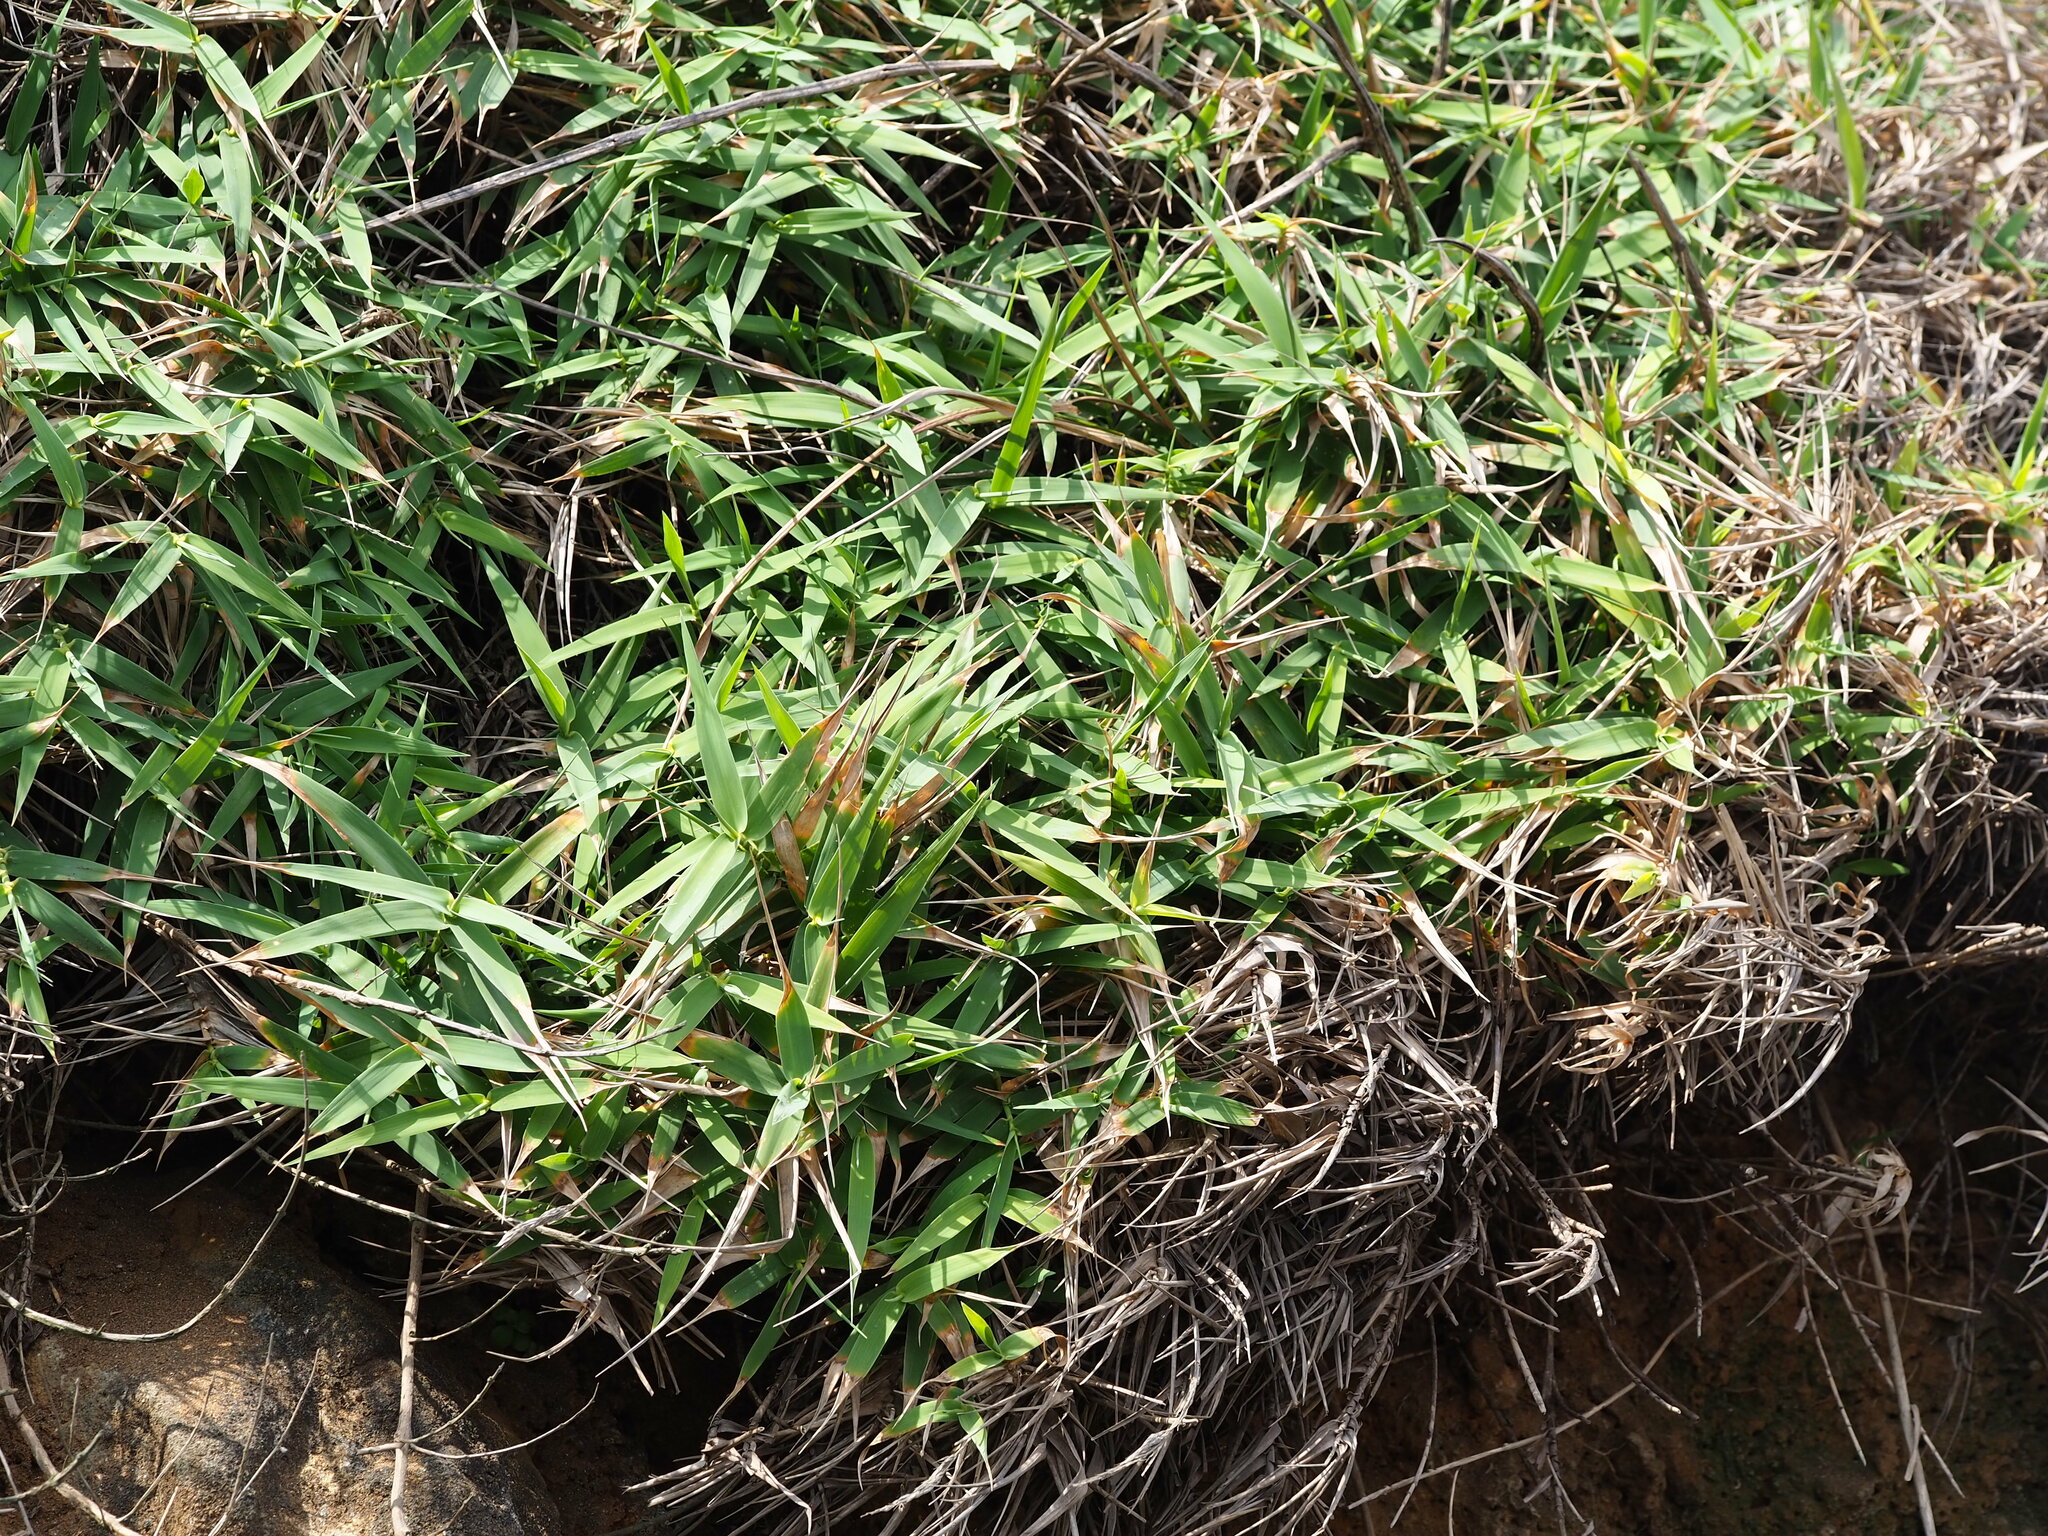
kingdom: Plantae
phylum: Tracheophyta
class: Liliopsida
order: Poales
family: Poaceae
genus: Arundo
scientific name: Arundo formosana
